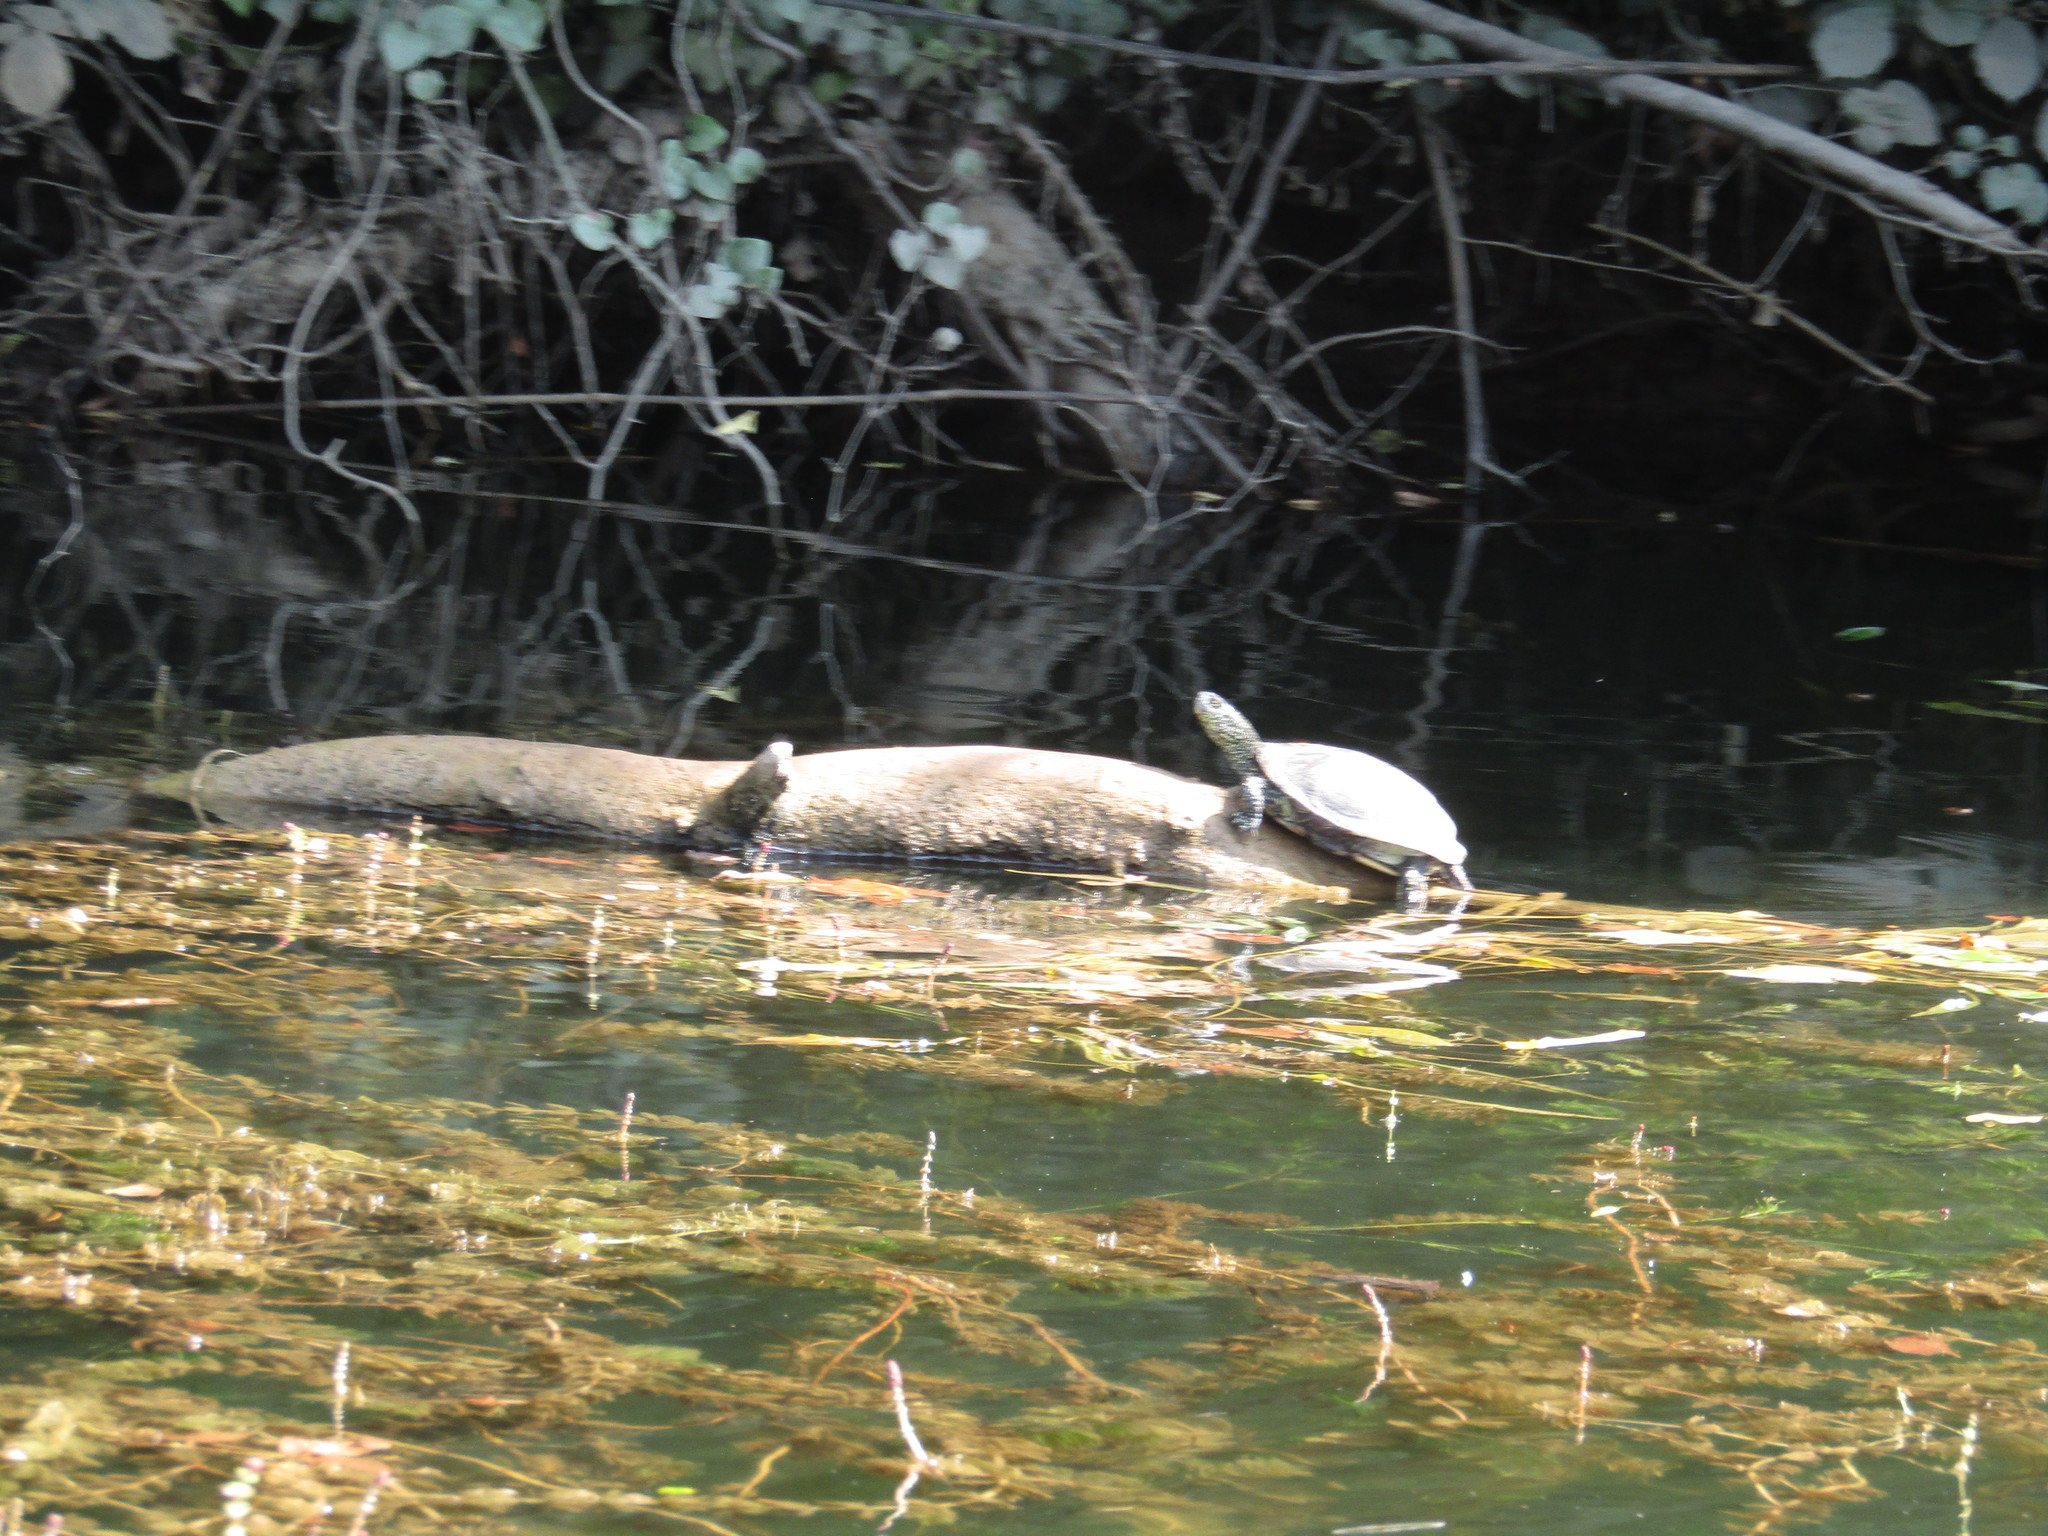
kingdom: Animalia
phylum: Chordata
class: Testudines
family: Emydidae
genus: Emys
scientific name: Emys orbicularis
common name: European pond turtle
